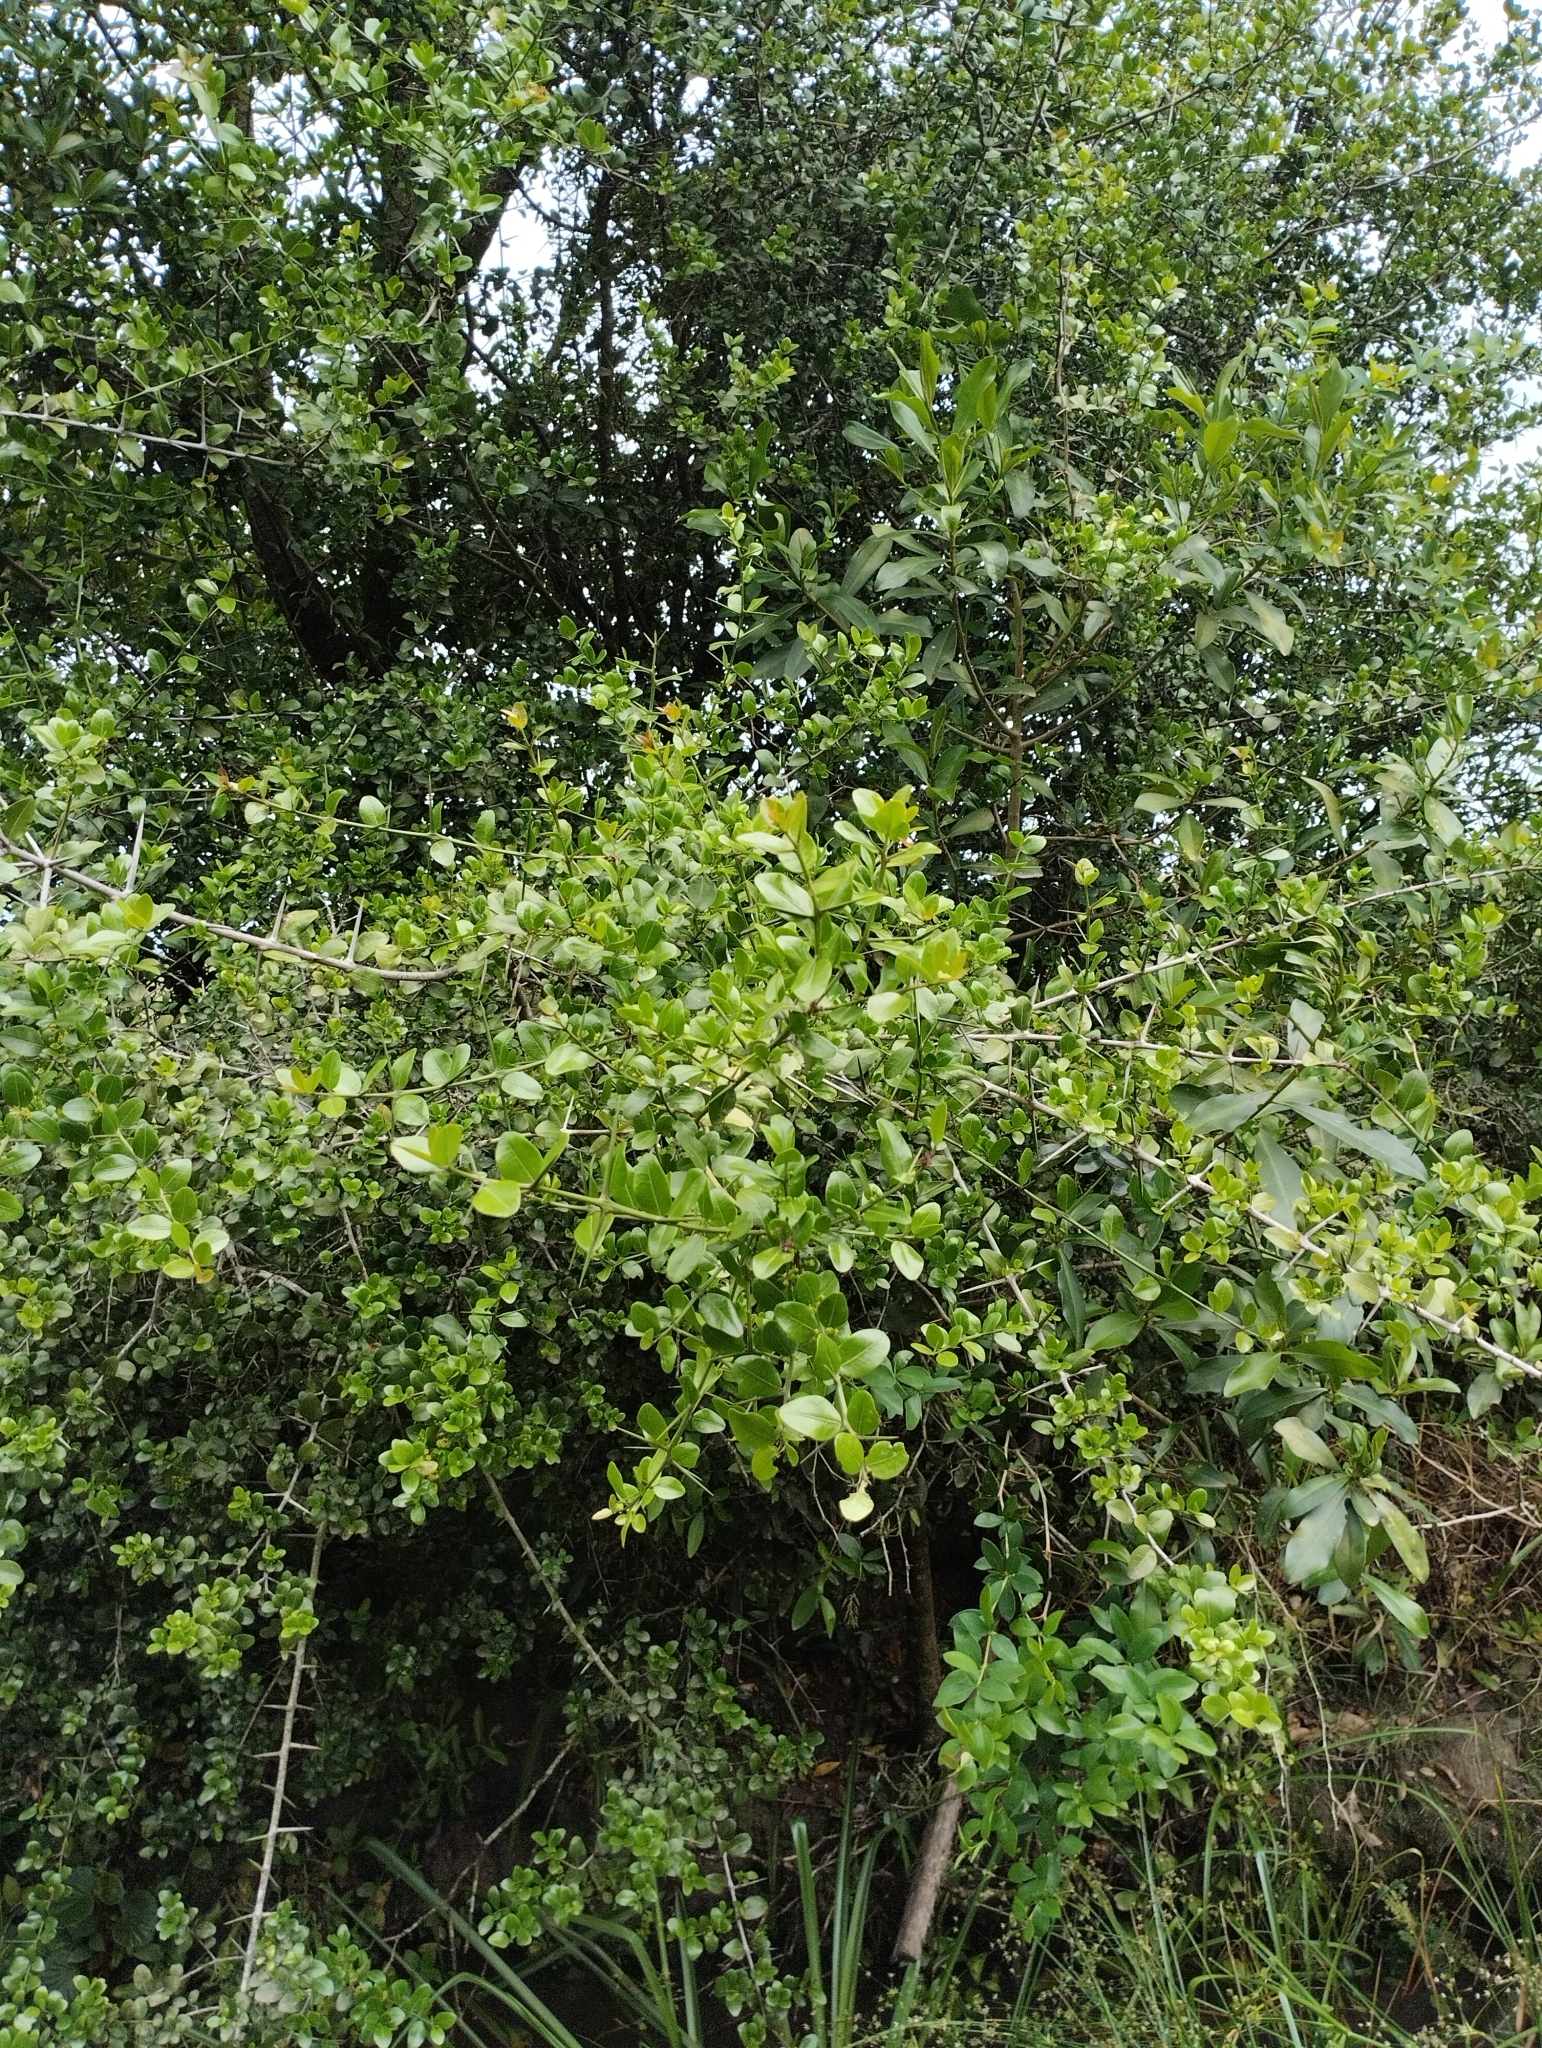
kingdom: Plantae
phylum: Tracheophyta
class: Magnoliopsida
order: Rosales
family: Rhamnaceae
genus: Scutia
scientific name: Scutia buxifolia
